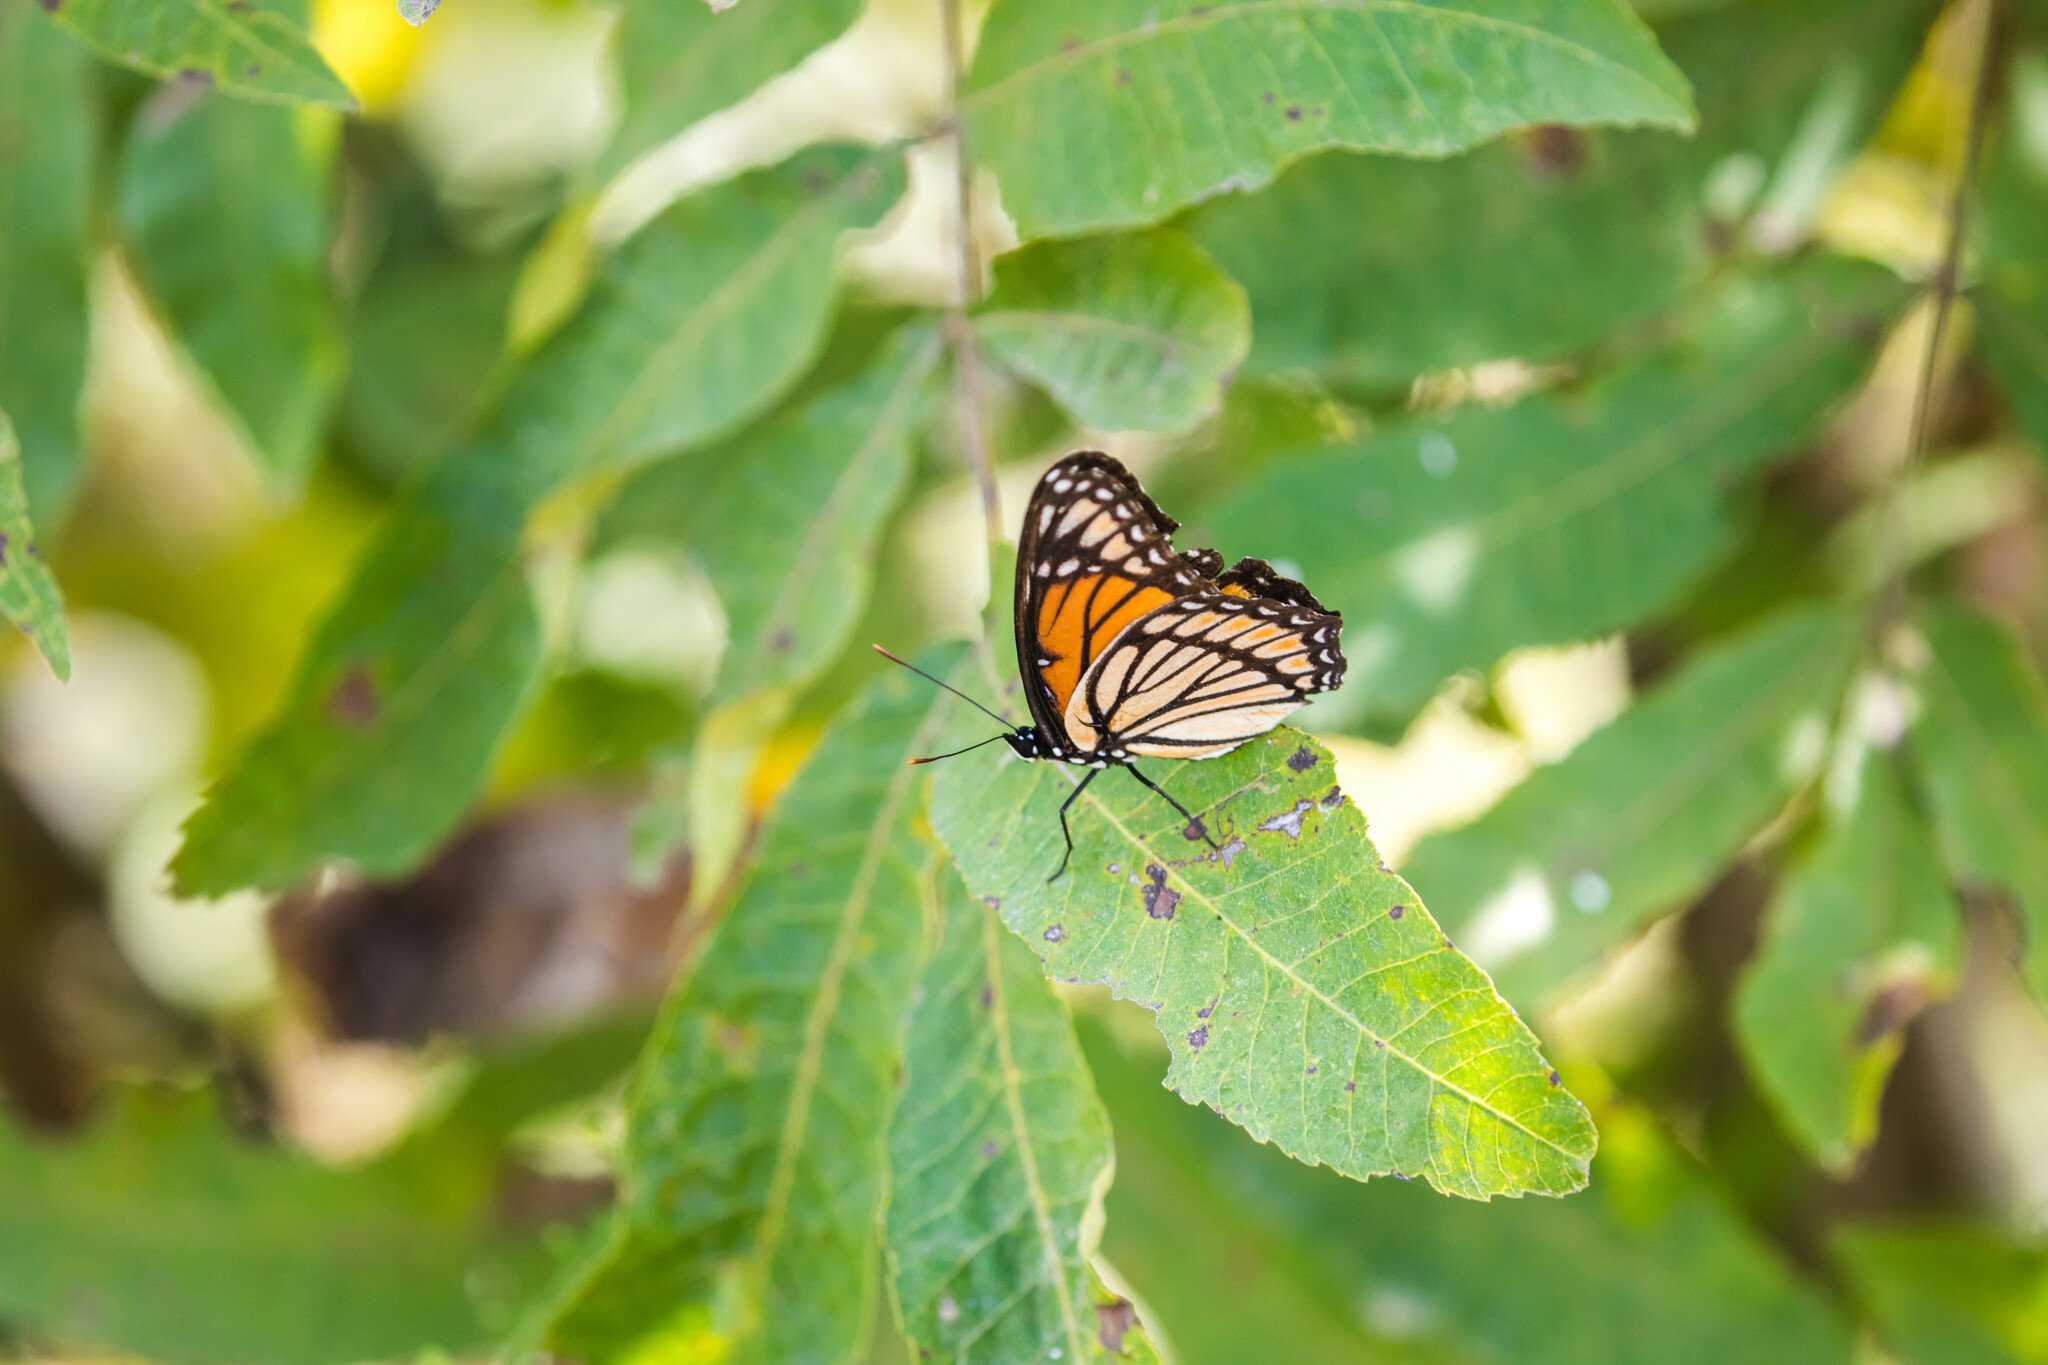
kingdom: Animalia
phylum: Arthropoda
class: Insecta
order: Lepidoptera
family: Nymphalidae
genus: Limenitis
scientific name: Limenitis archippus
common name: Viceroy
